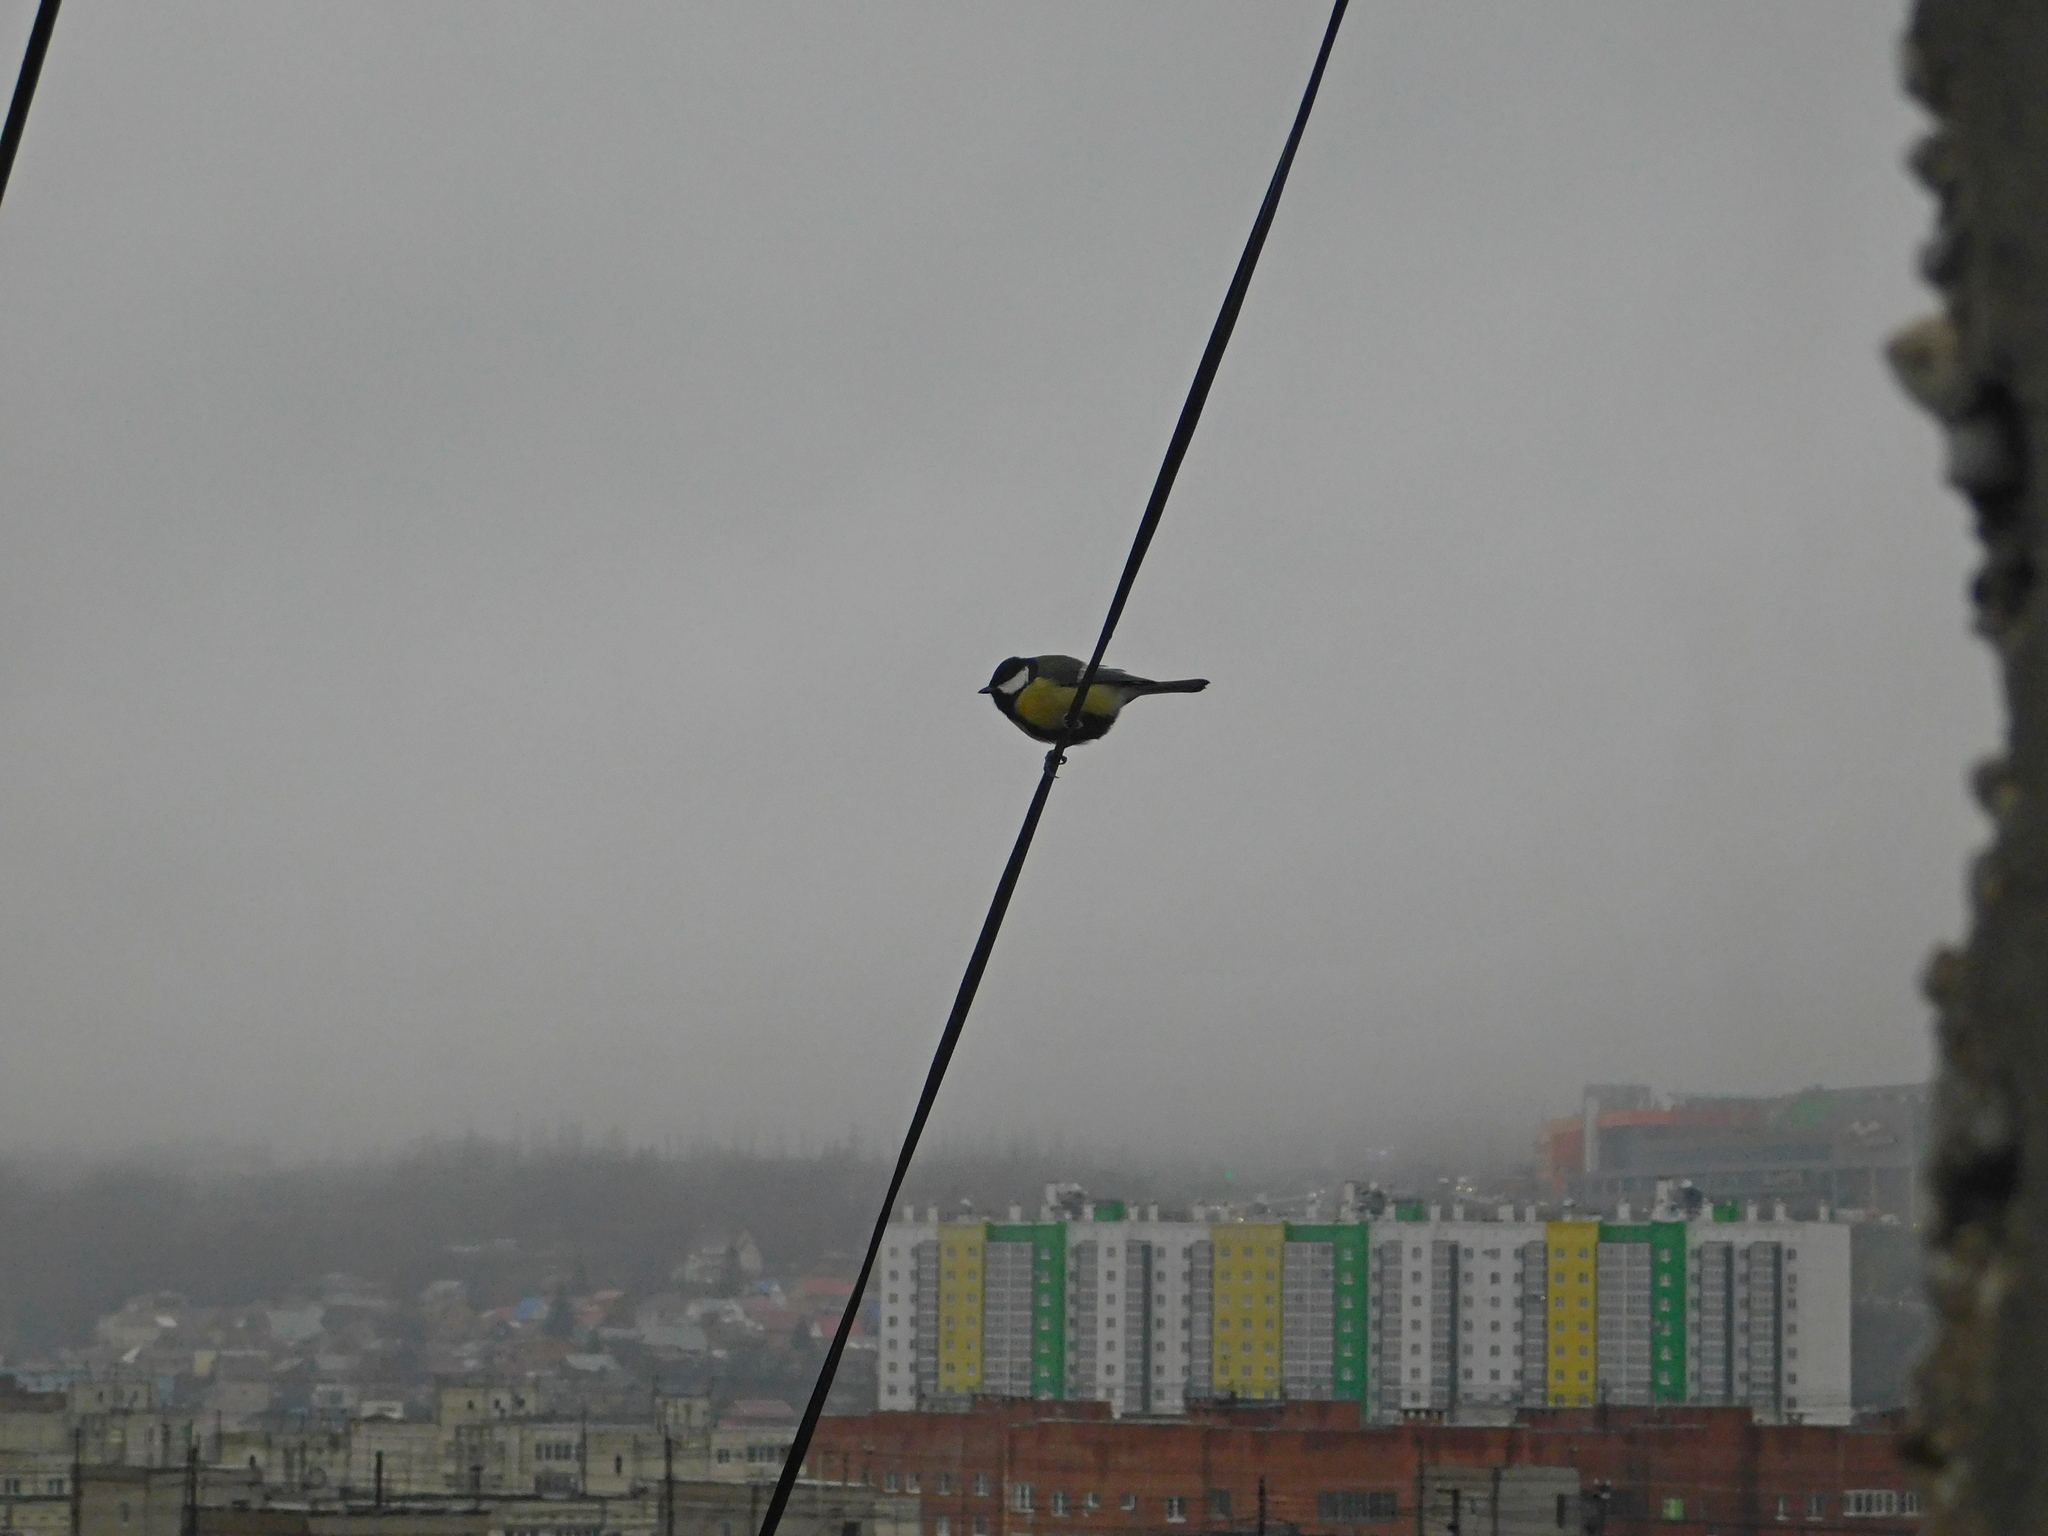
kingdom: Animalia
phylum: Chordata
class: Aves
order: Passeriformes
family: Paridae
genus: Parus
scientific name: Parus major
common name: Great tit
